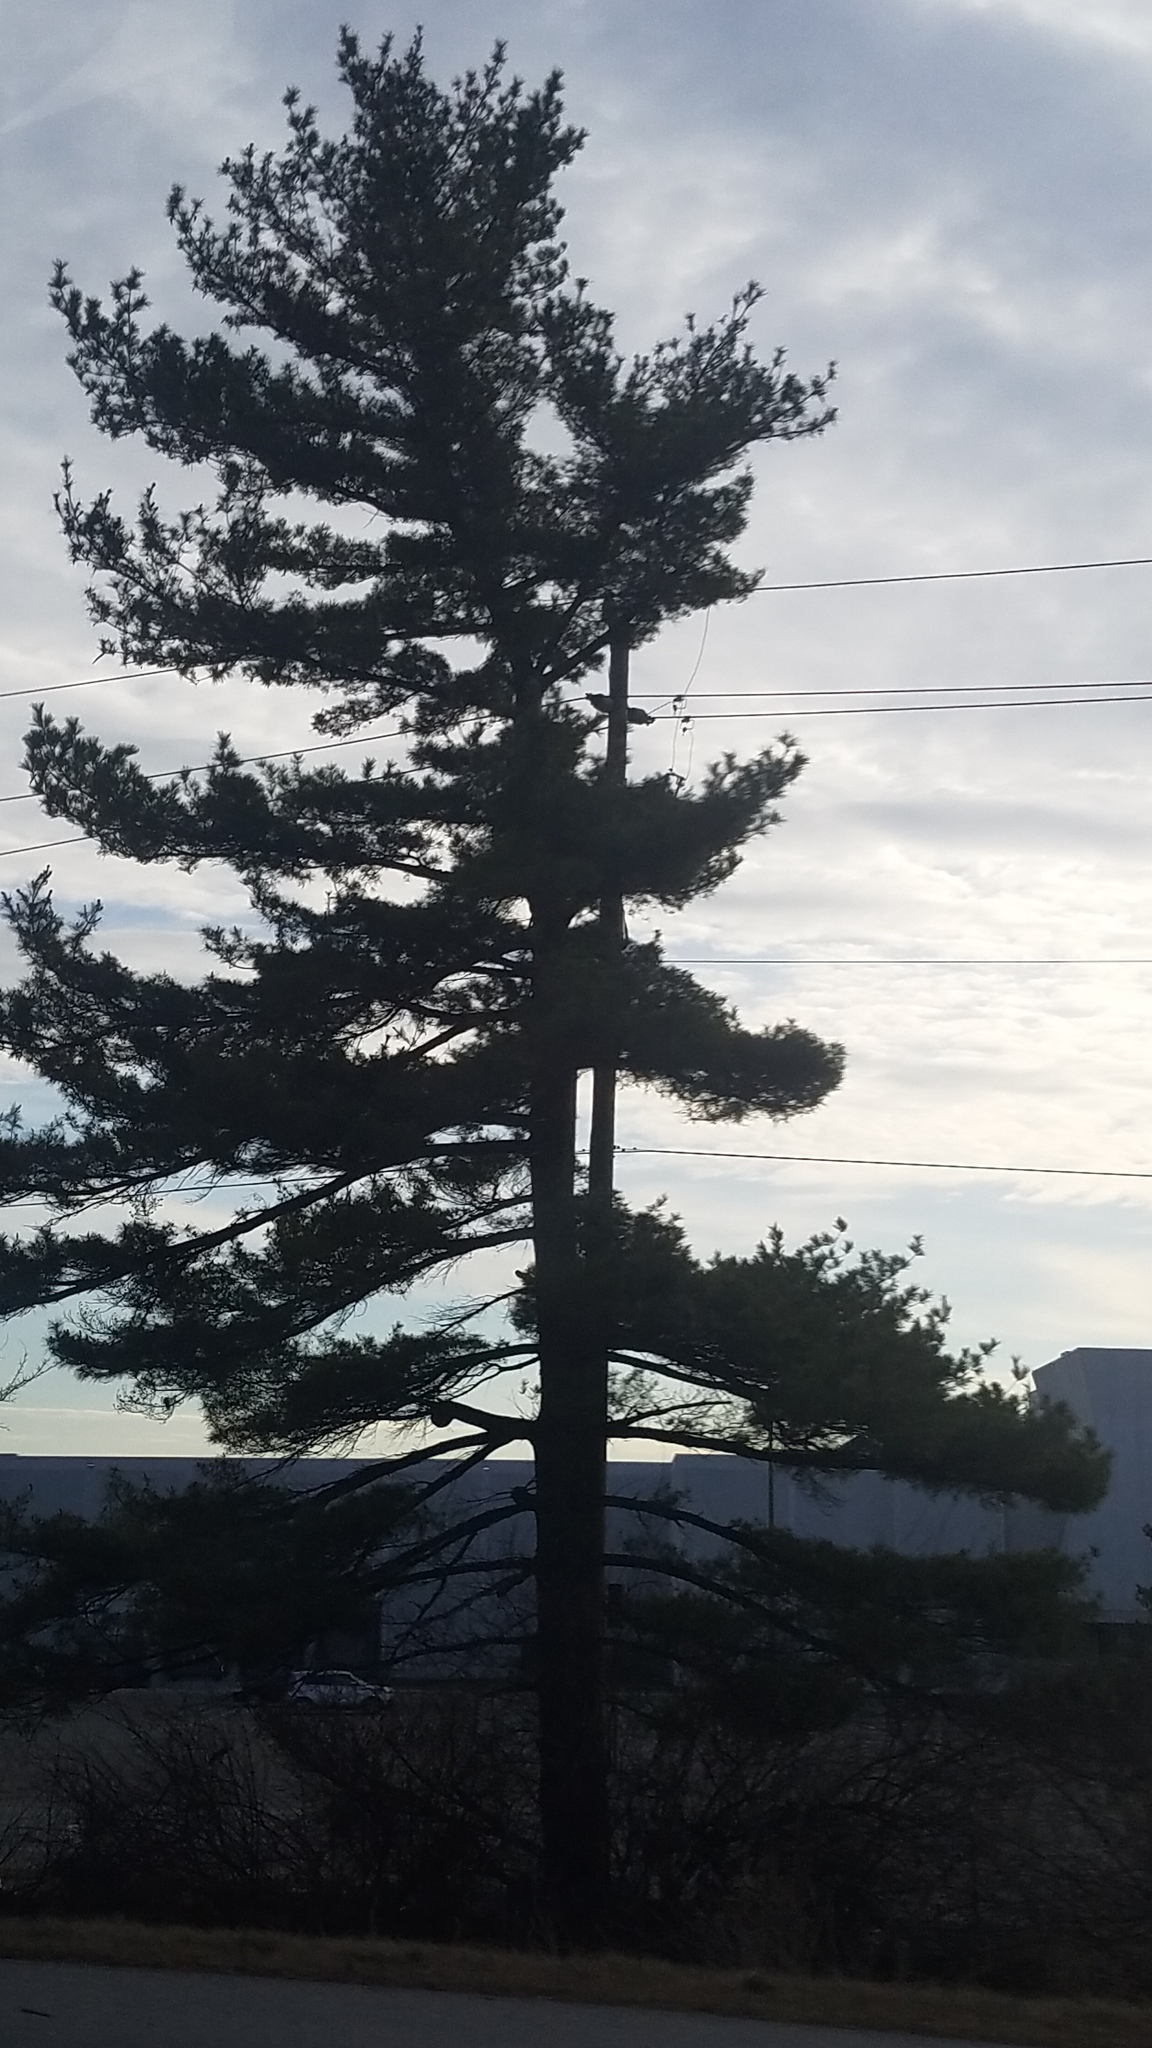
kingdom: Plantae
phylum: Tracheophyta
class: Pinopsida
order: Pinales
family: Pinaceae
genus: Pinus
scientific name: Pinus strobus
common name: Weymouth pine
